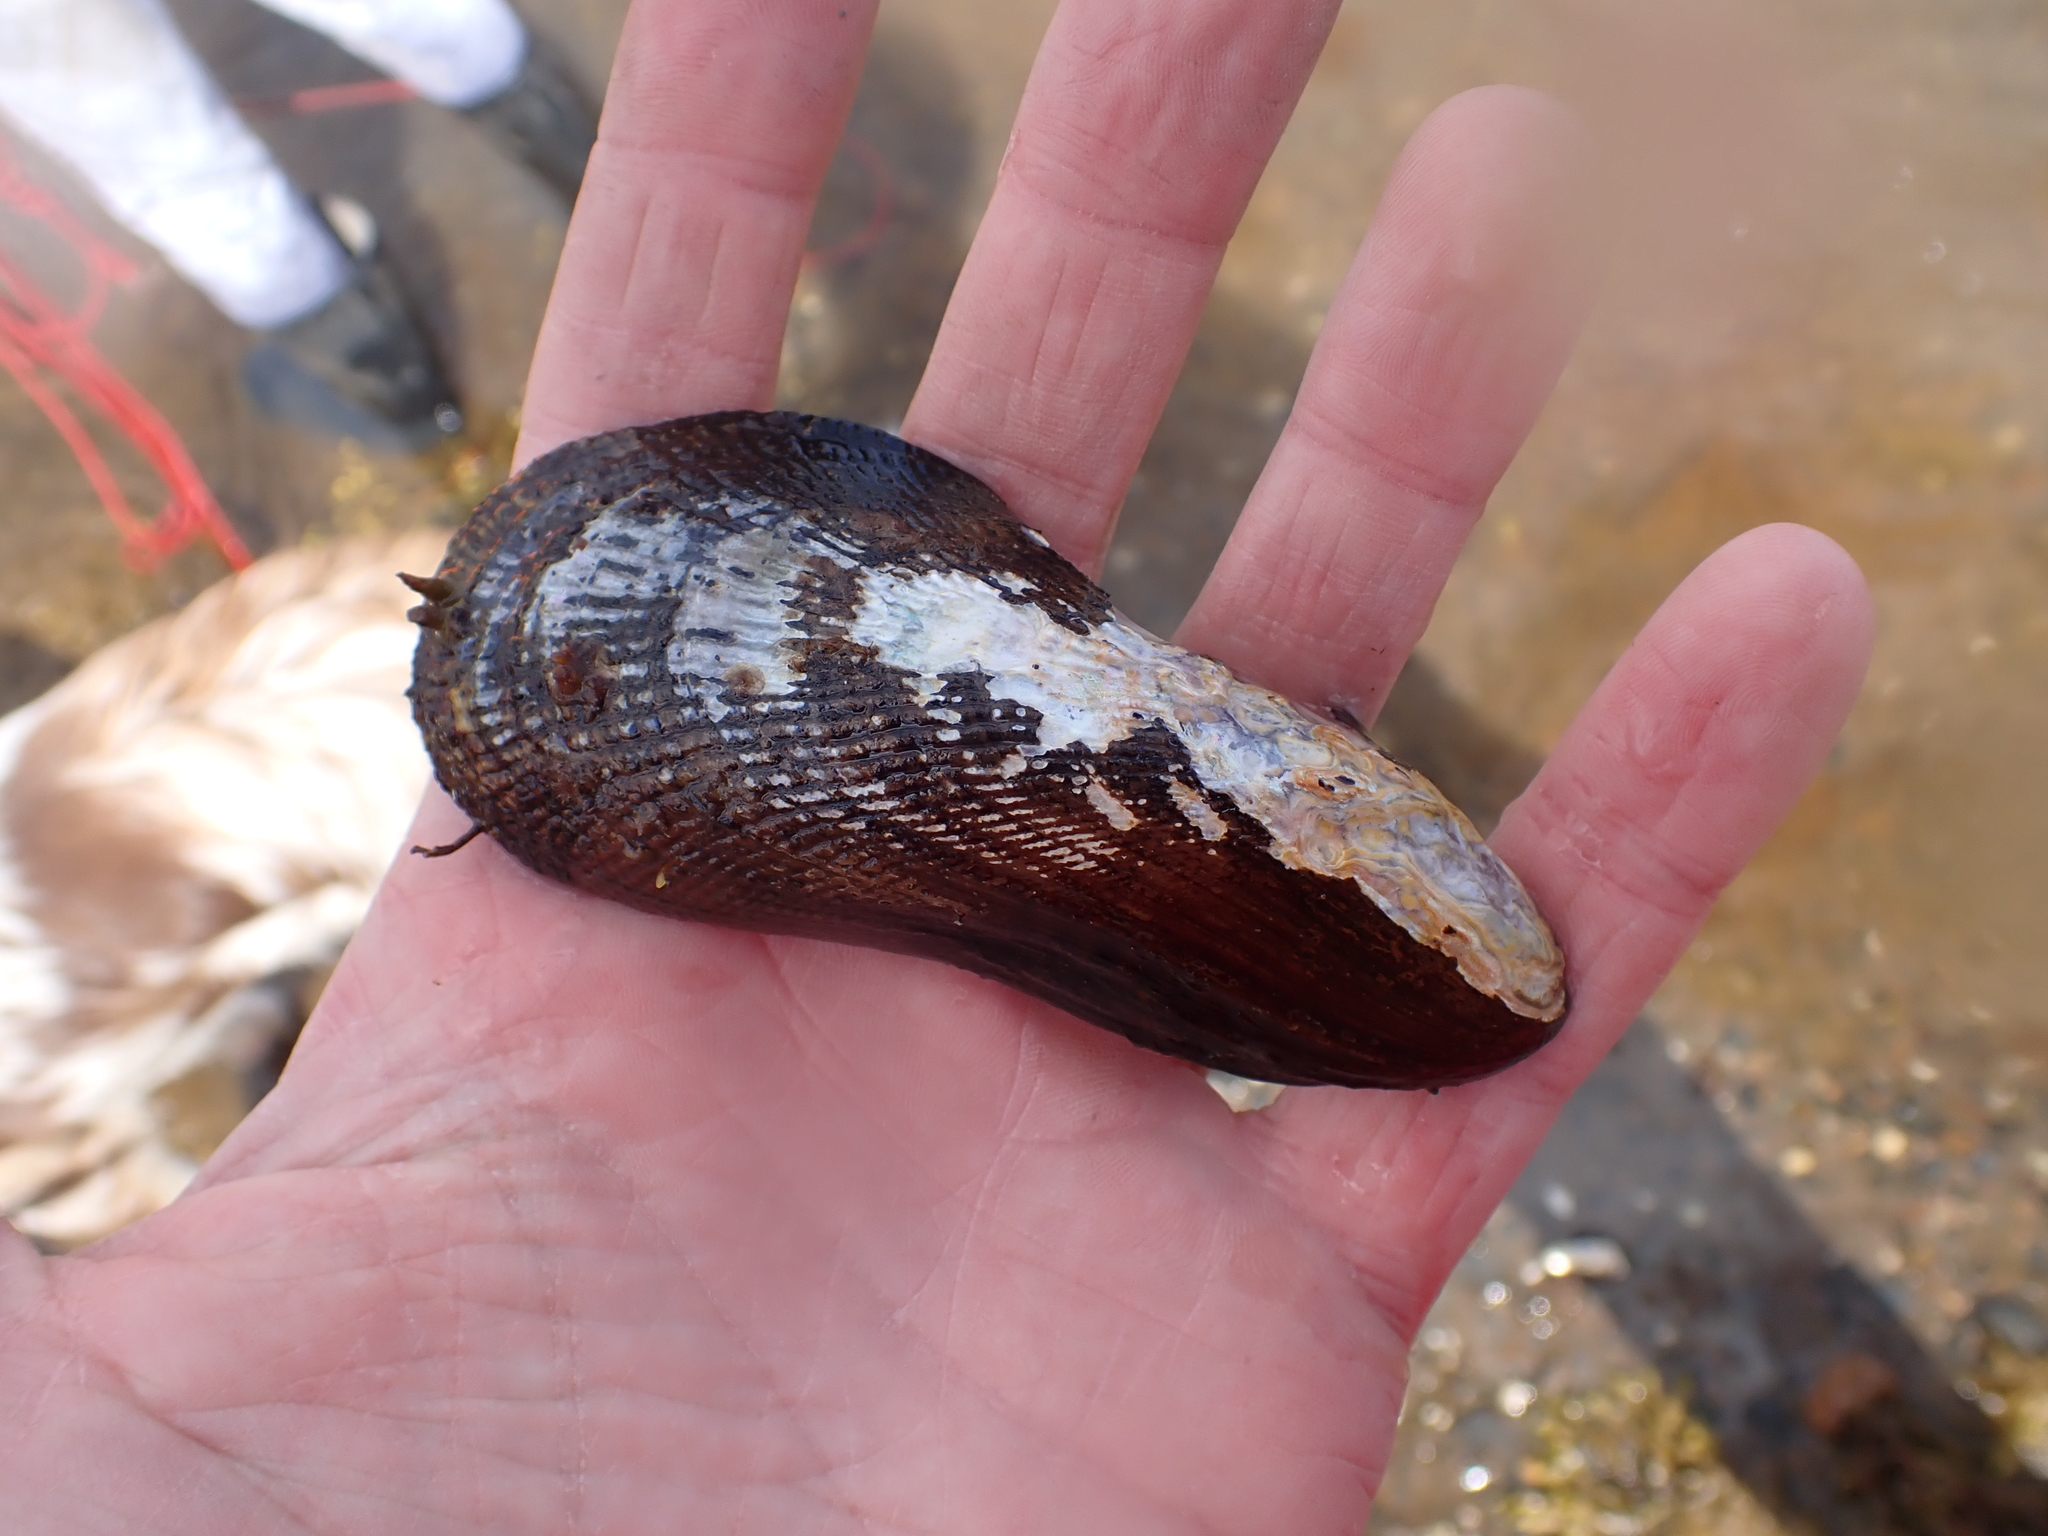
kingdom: Animalia
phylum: Mollusca
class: Bivalvia
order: Mytilida
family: Mytilidae
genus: Geukensia
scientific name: Geukensia demissa
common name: Ribbed mussel
